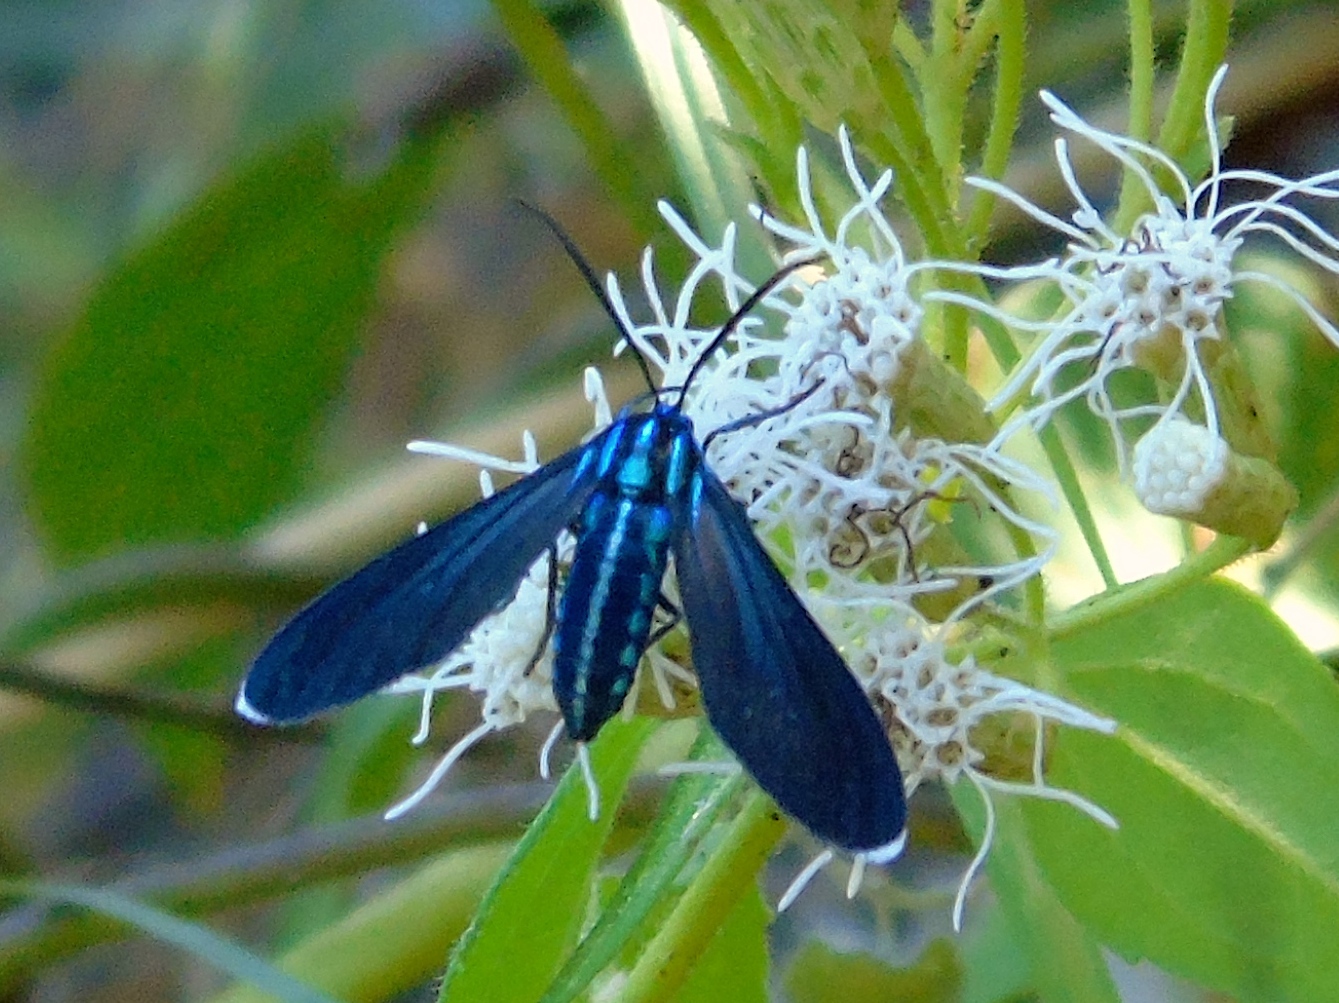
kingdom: Animalia
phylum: Arthropoda
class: Insecta
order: Lepidoptera
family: Erebidae
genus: Uranophora
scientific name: Uranophora leucotela
